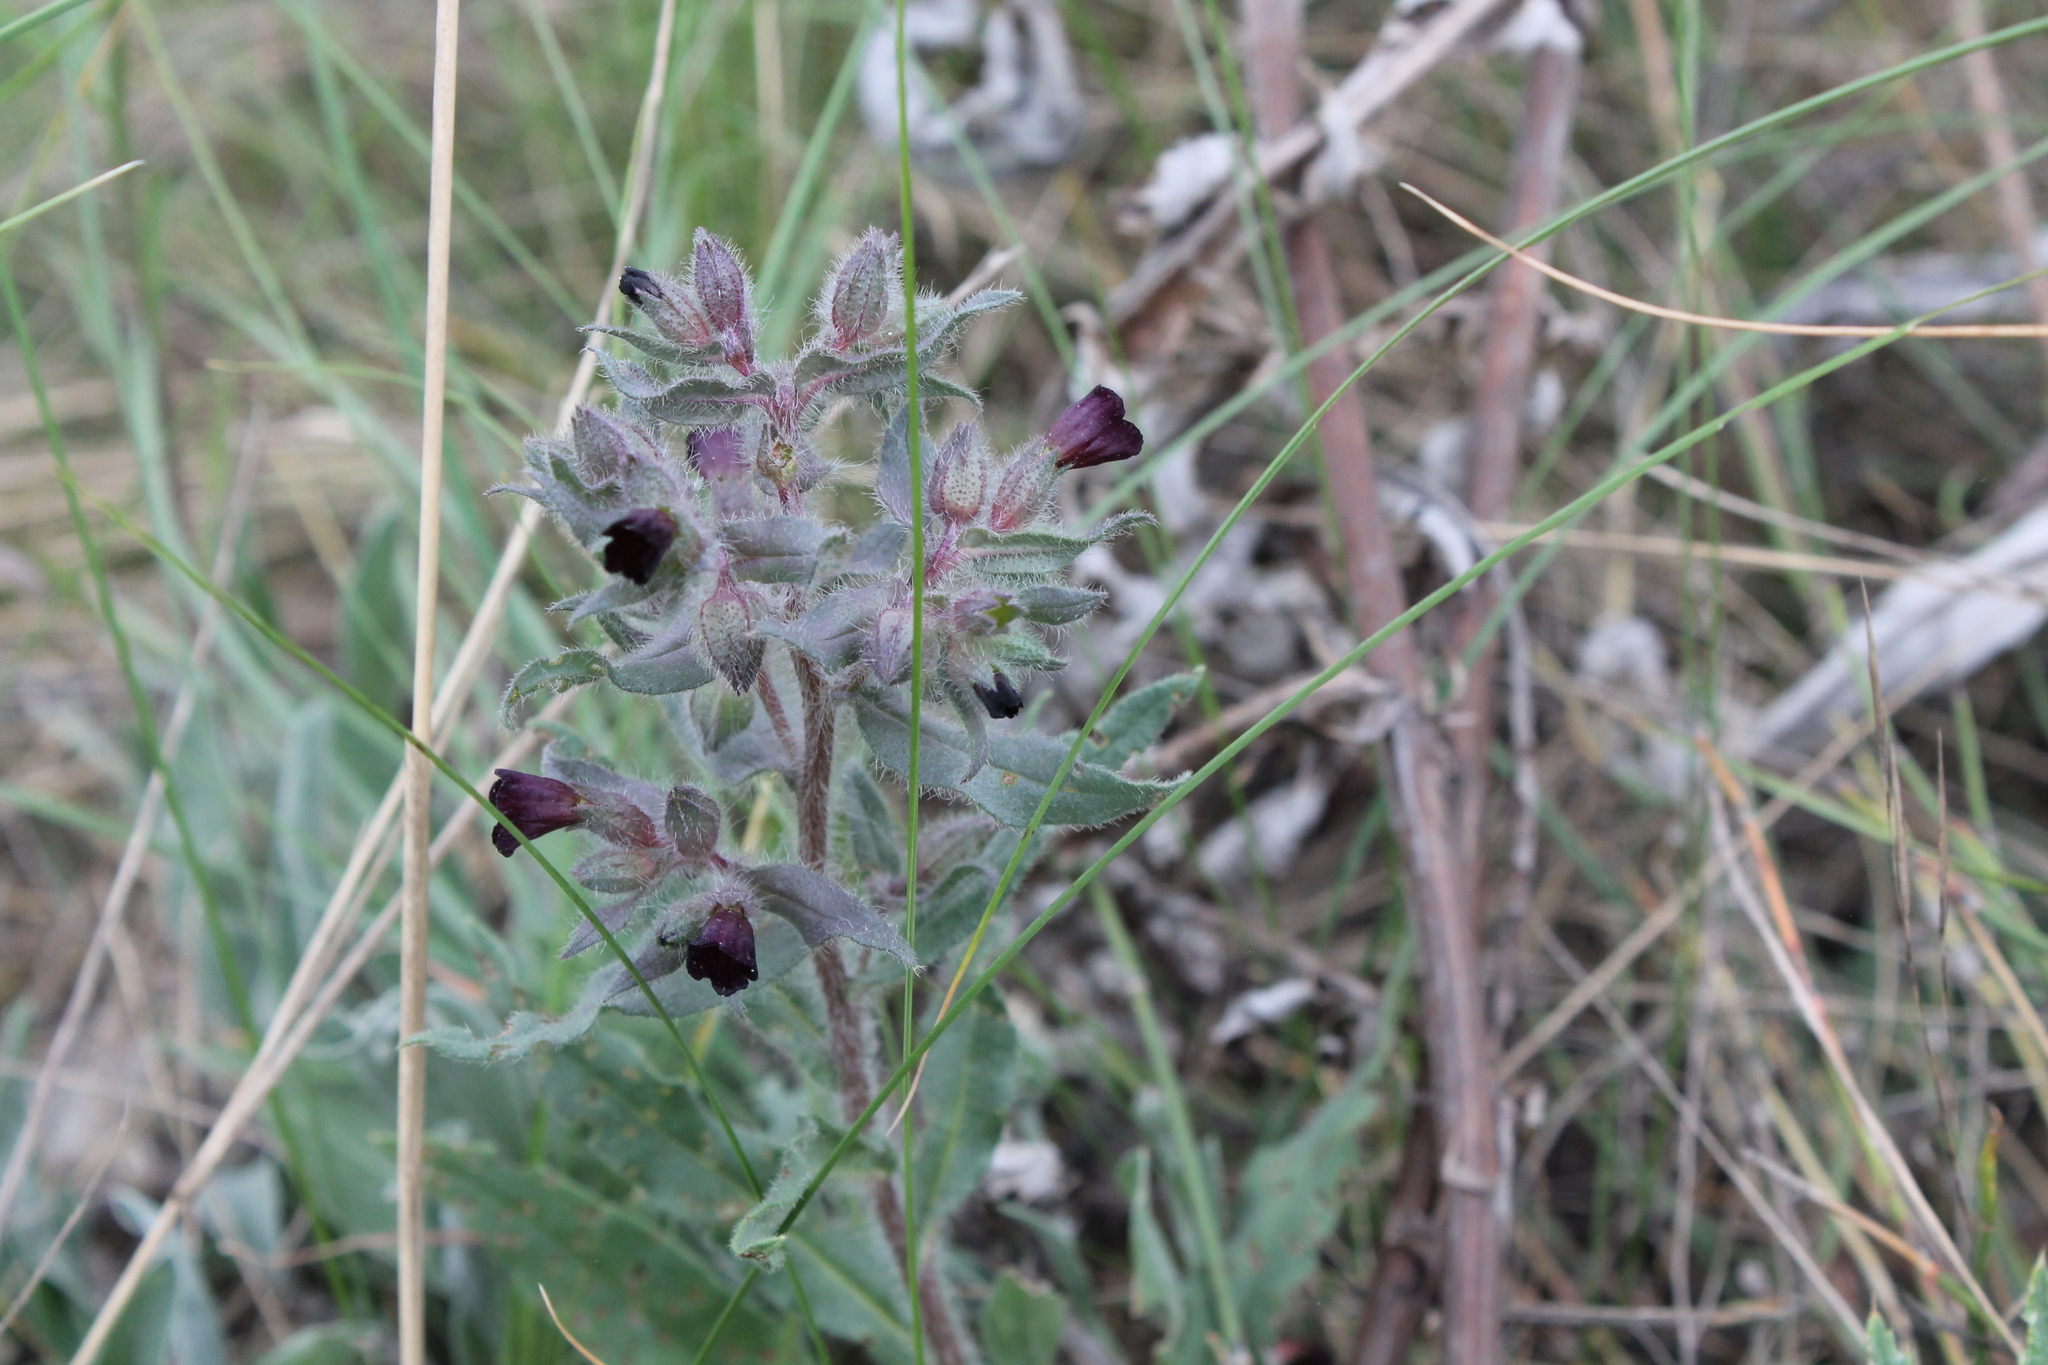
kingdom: Plantae
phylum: Tracheophyta
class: Magnoliopsida
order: Boraginales
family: Boraginaceae
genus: Nonea
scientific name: Nonea pulla
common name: Brown nonea
